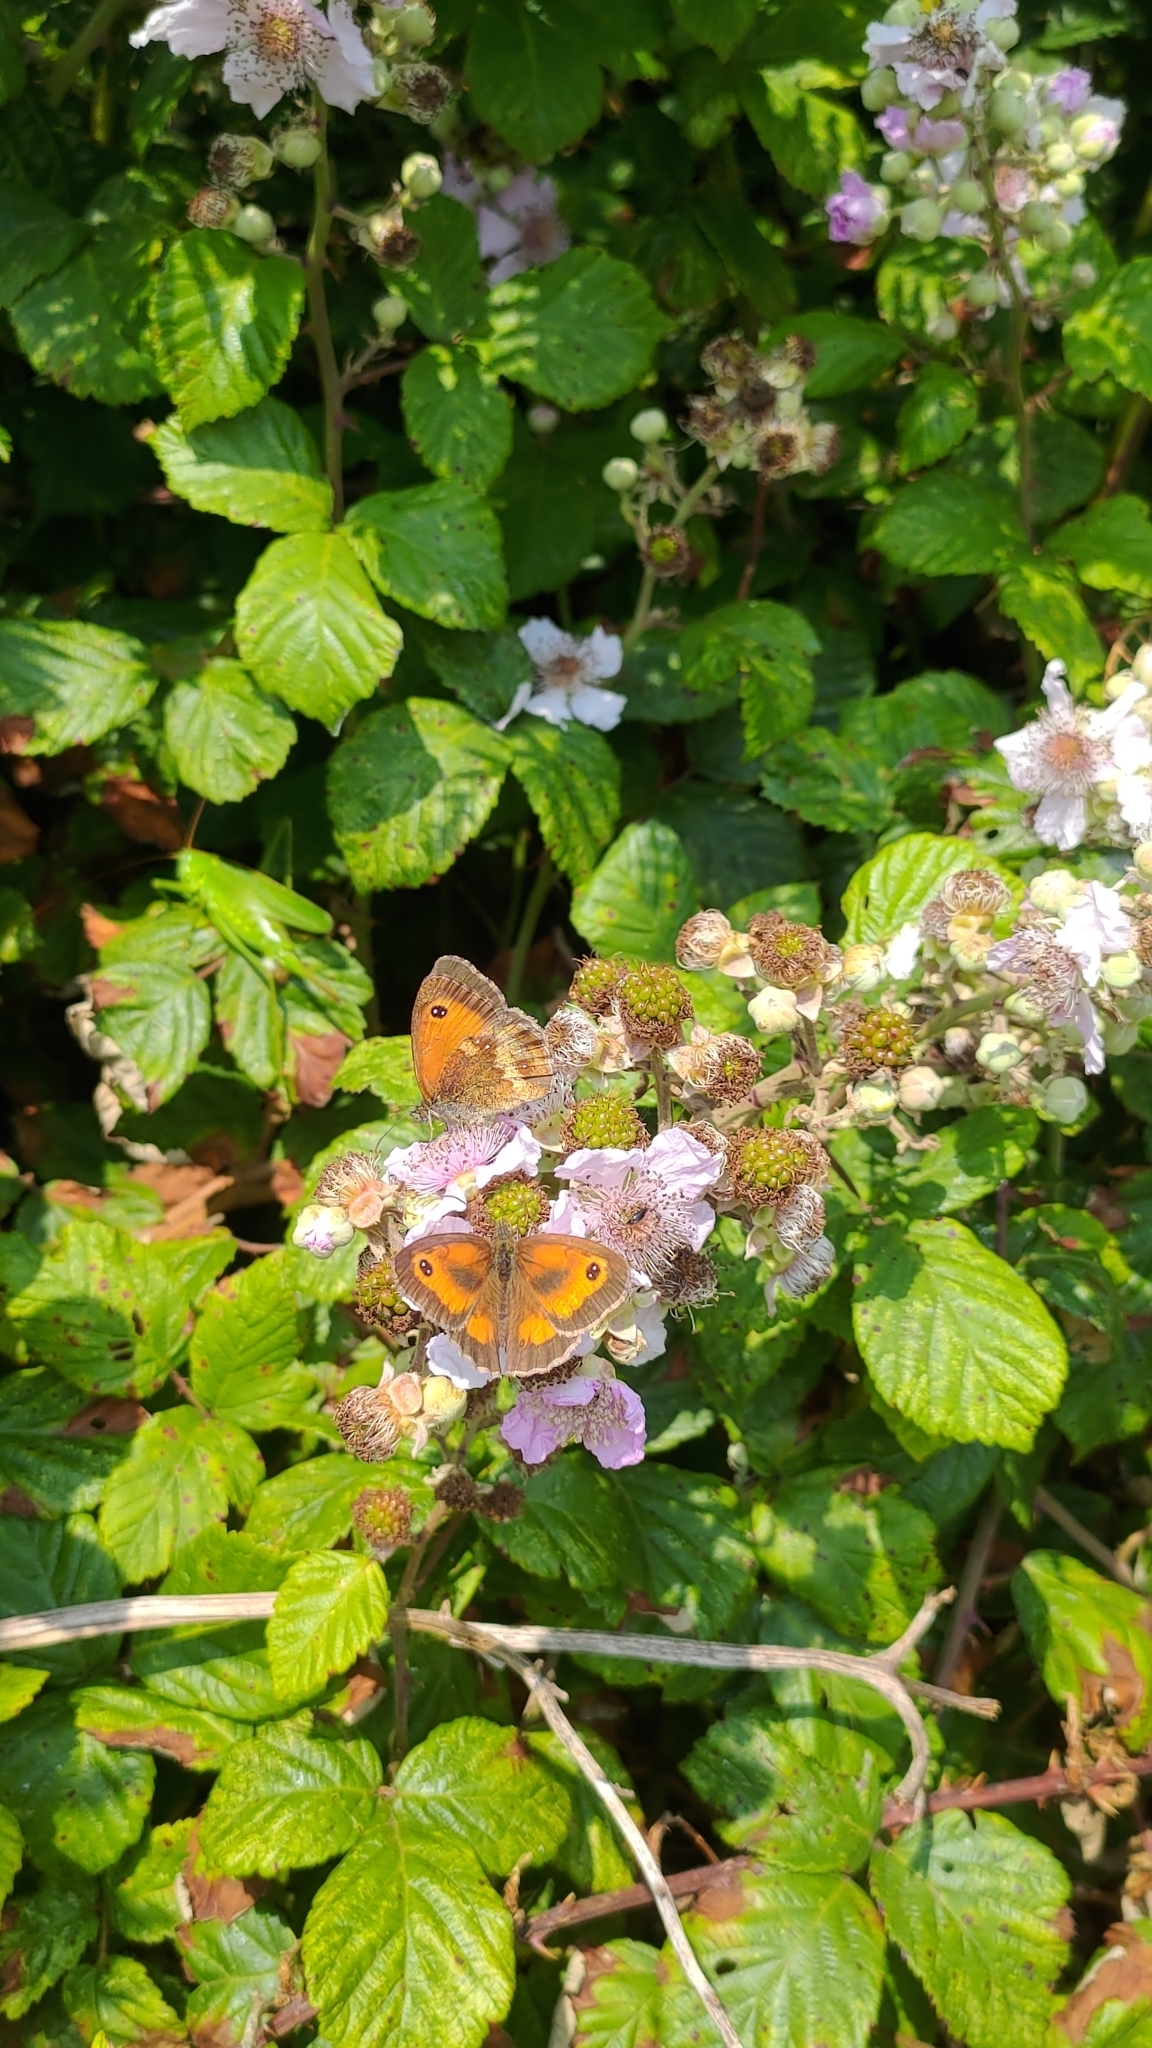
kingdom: Animalia
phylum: Arthropoda
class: Insecta
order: Lepidoptera
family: Nymphalidae
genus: Pyronia
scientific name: Pyronia tithonus
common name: Gatekeeper
